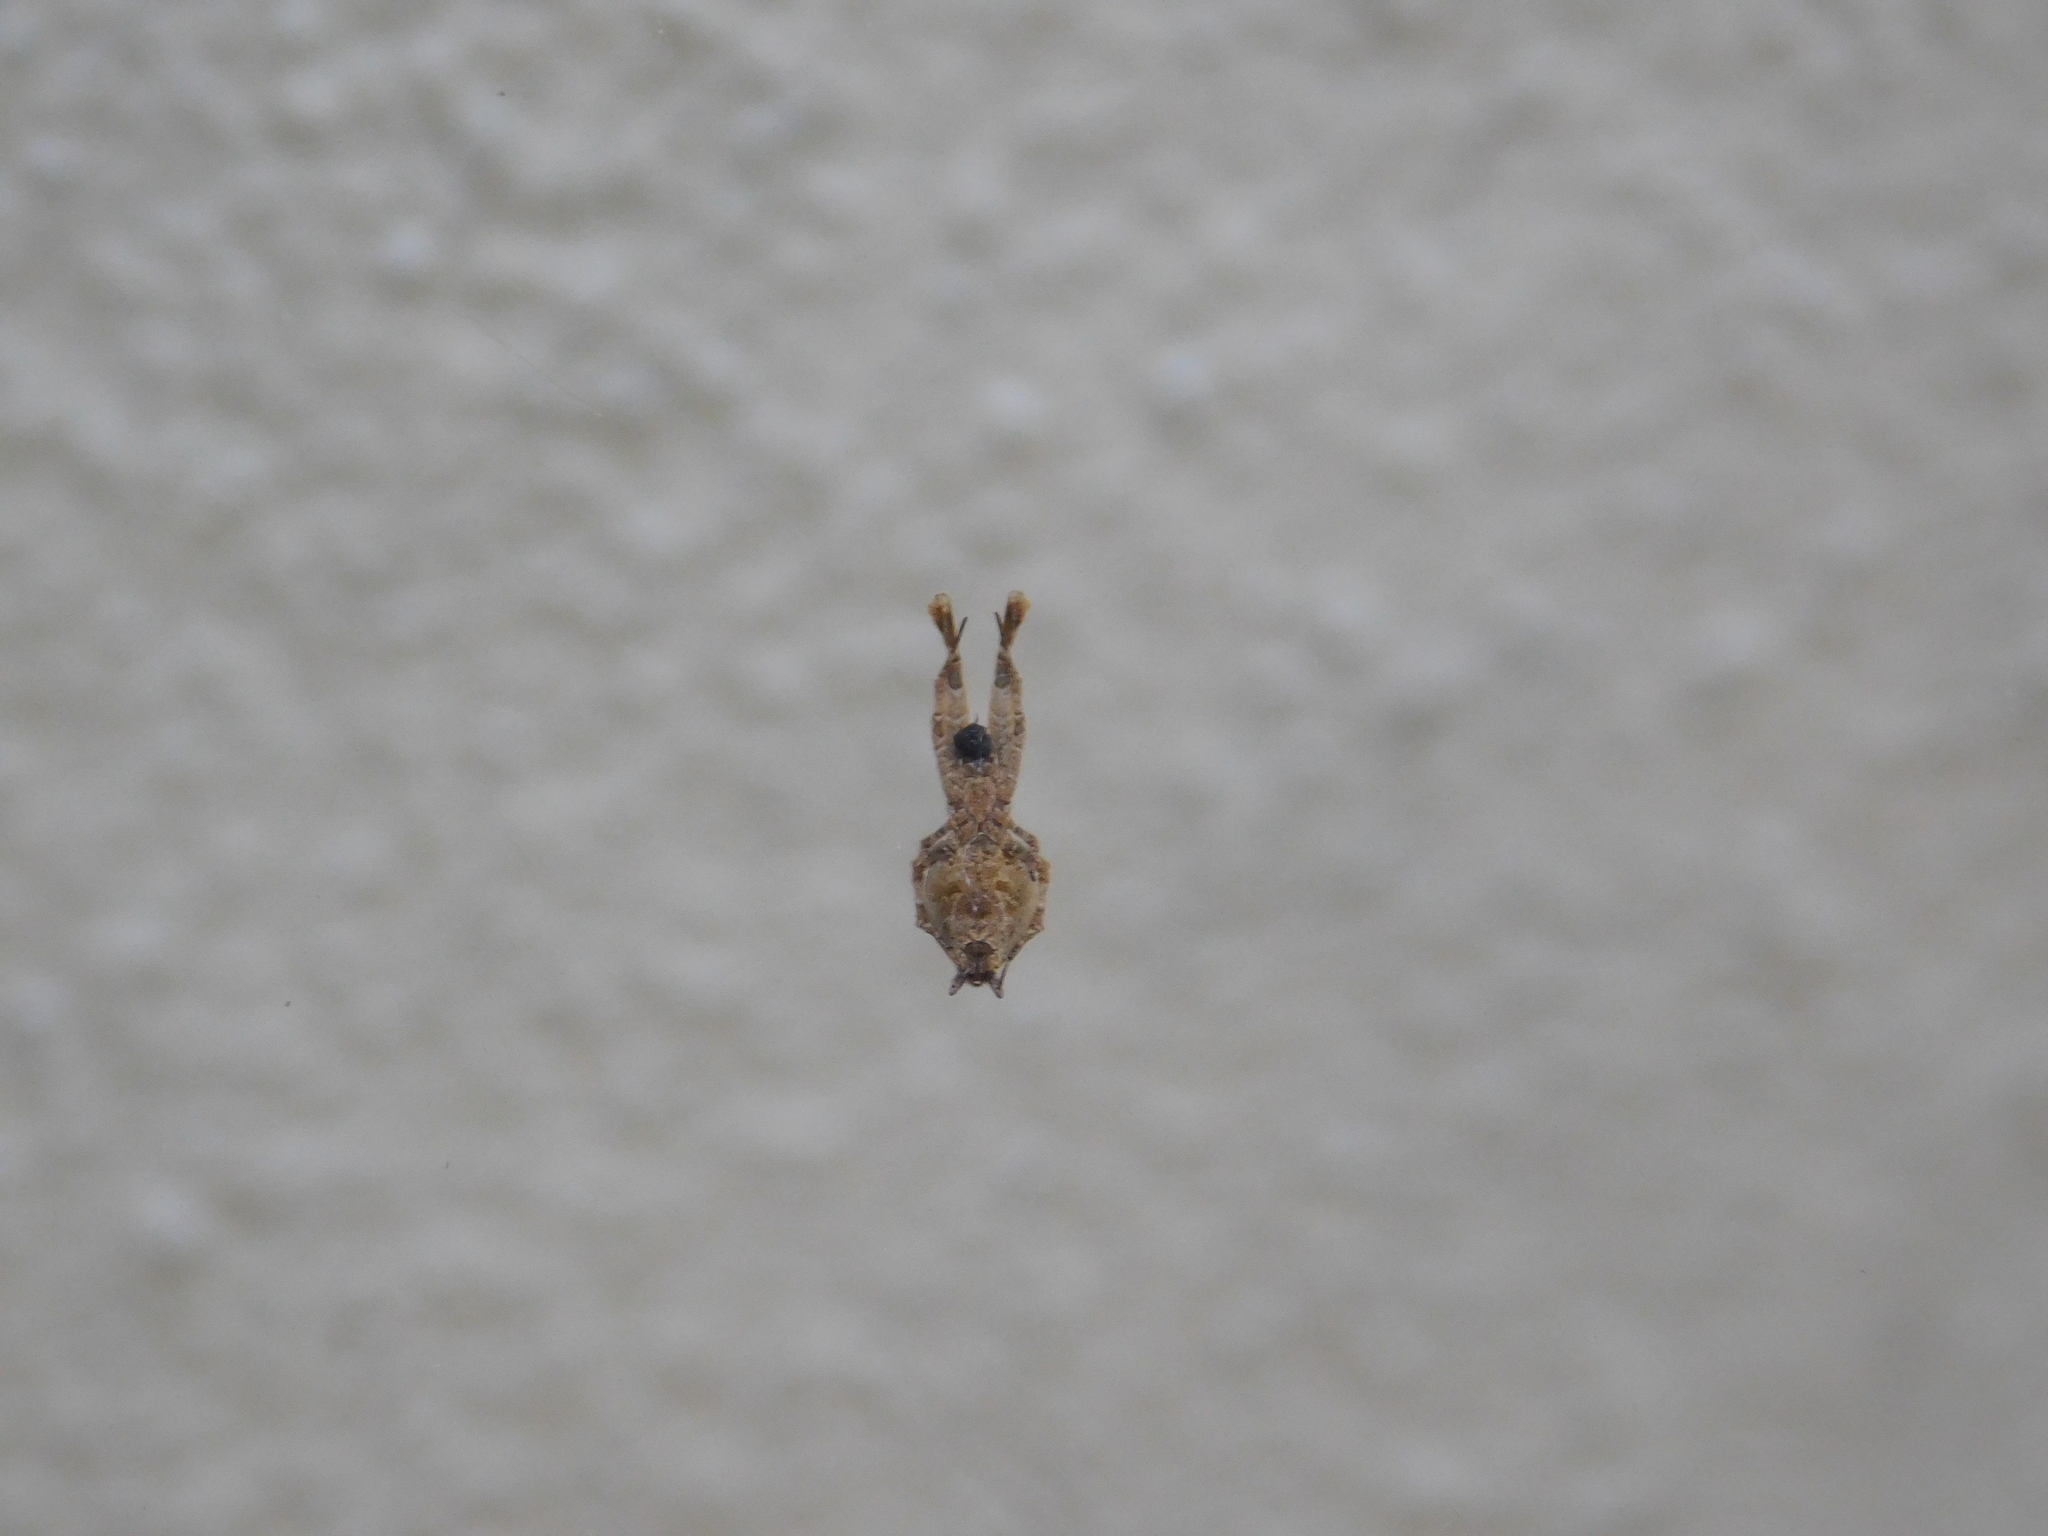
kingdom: Animalia
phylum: Arthropoda
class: Arachnida
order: Araneae
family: Uloboridae
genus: Uloborus
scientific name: Uloborus plumipes
